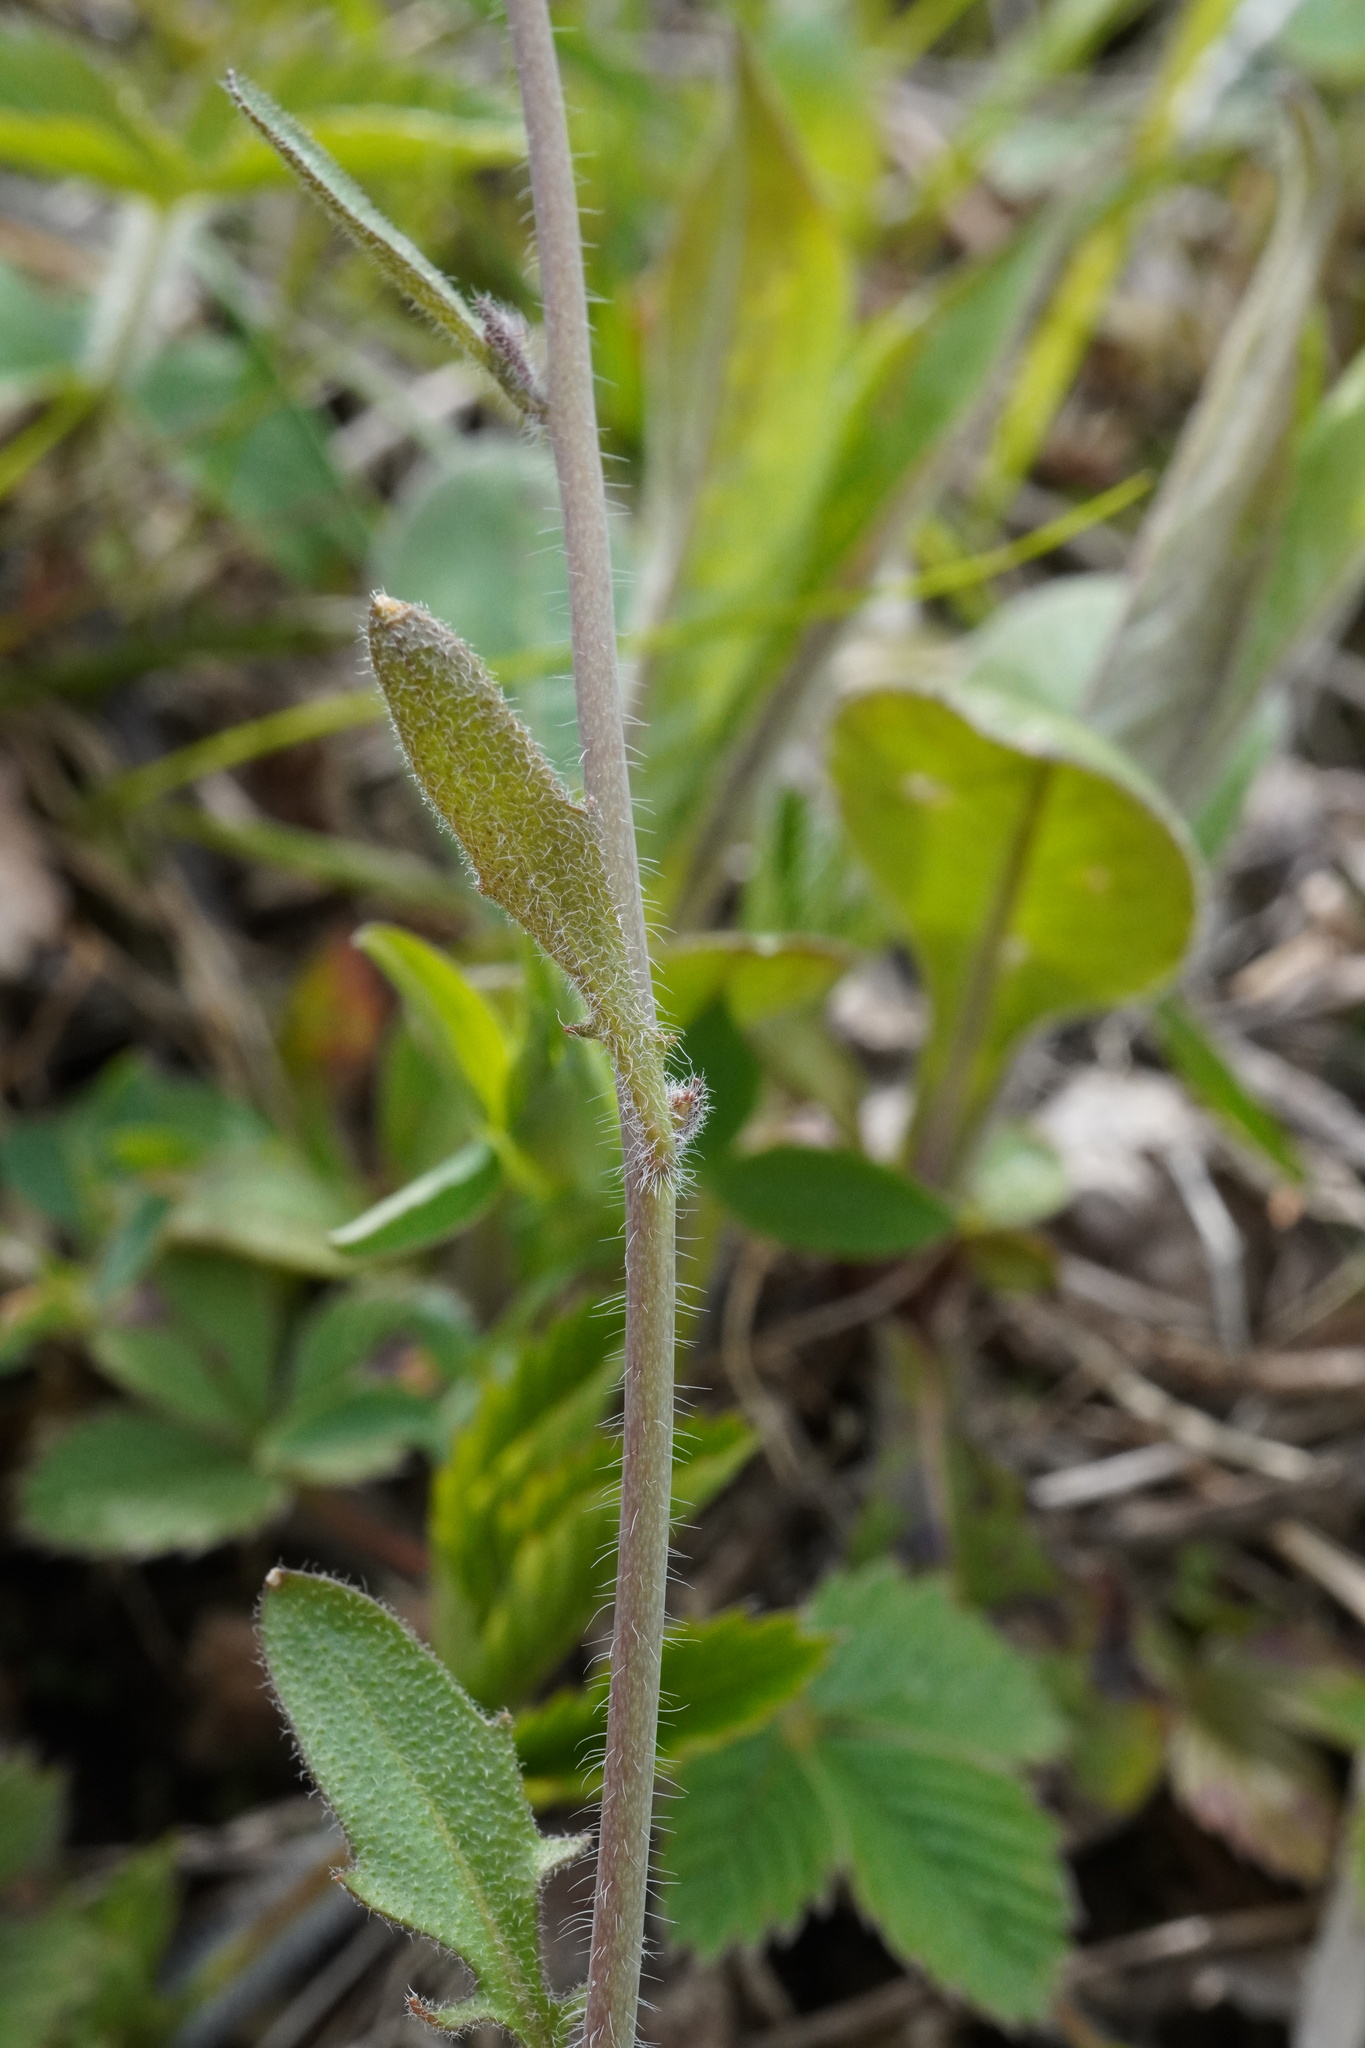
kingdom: Plantae
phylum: Tracheophyta
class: Magnoliopsida
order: Brassicales
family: Brassicaceae
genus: Arabidopsis
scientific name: Arabidopsis arenosa
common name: Sand rock-cress
